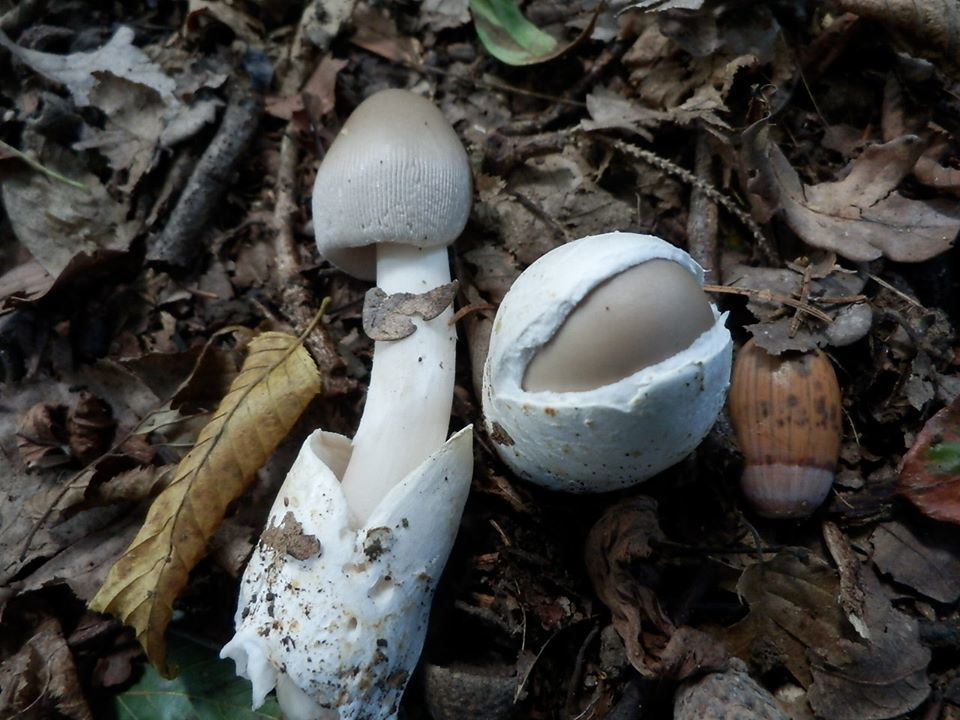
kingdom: Fungi
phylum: Basidiomycota
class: Agaricomycetes
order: Agaricales
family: Amanitaceae
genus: Amanita
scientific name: Amanita pachyvolvata
